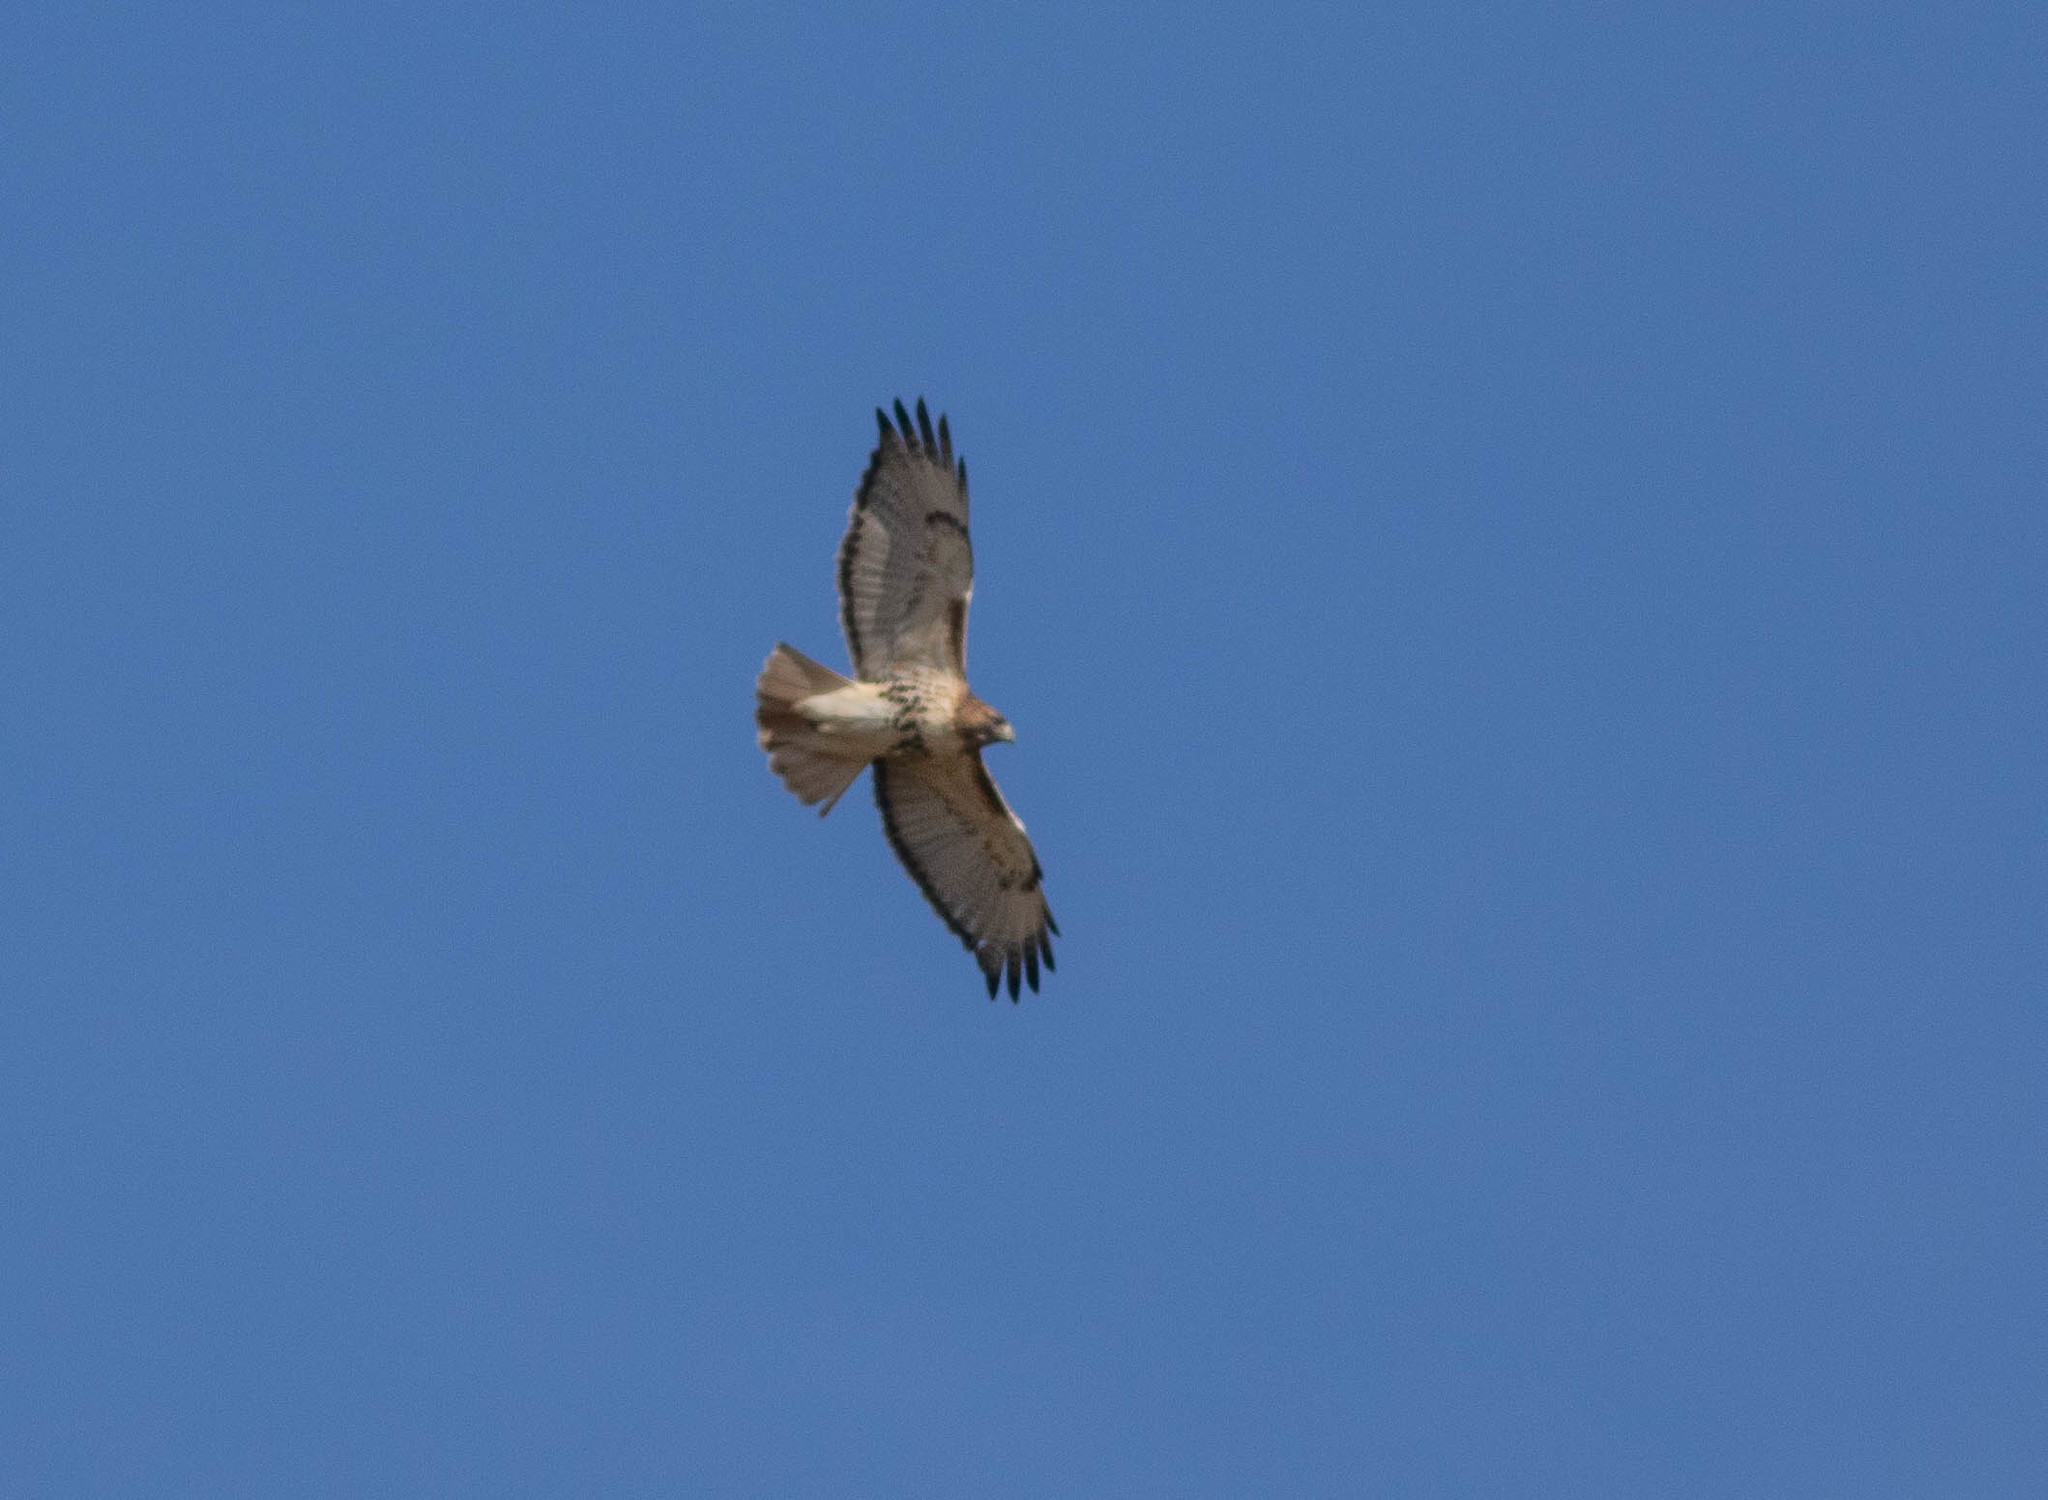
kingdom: Animalia
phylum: Chordata
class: Aves
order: Accipitriformes
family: Accipitridae
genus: Buteo
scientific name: Buteo jamaicensis
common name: Red-tailed hawk
